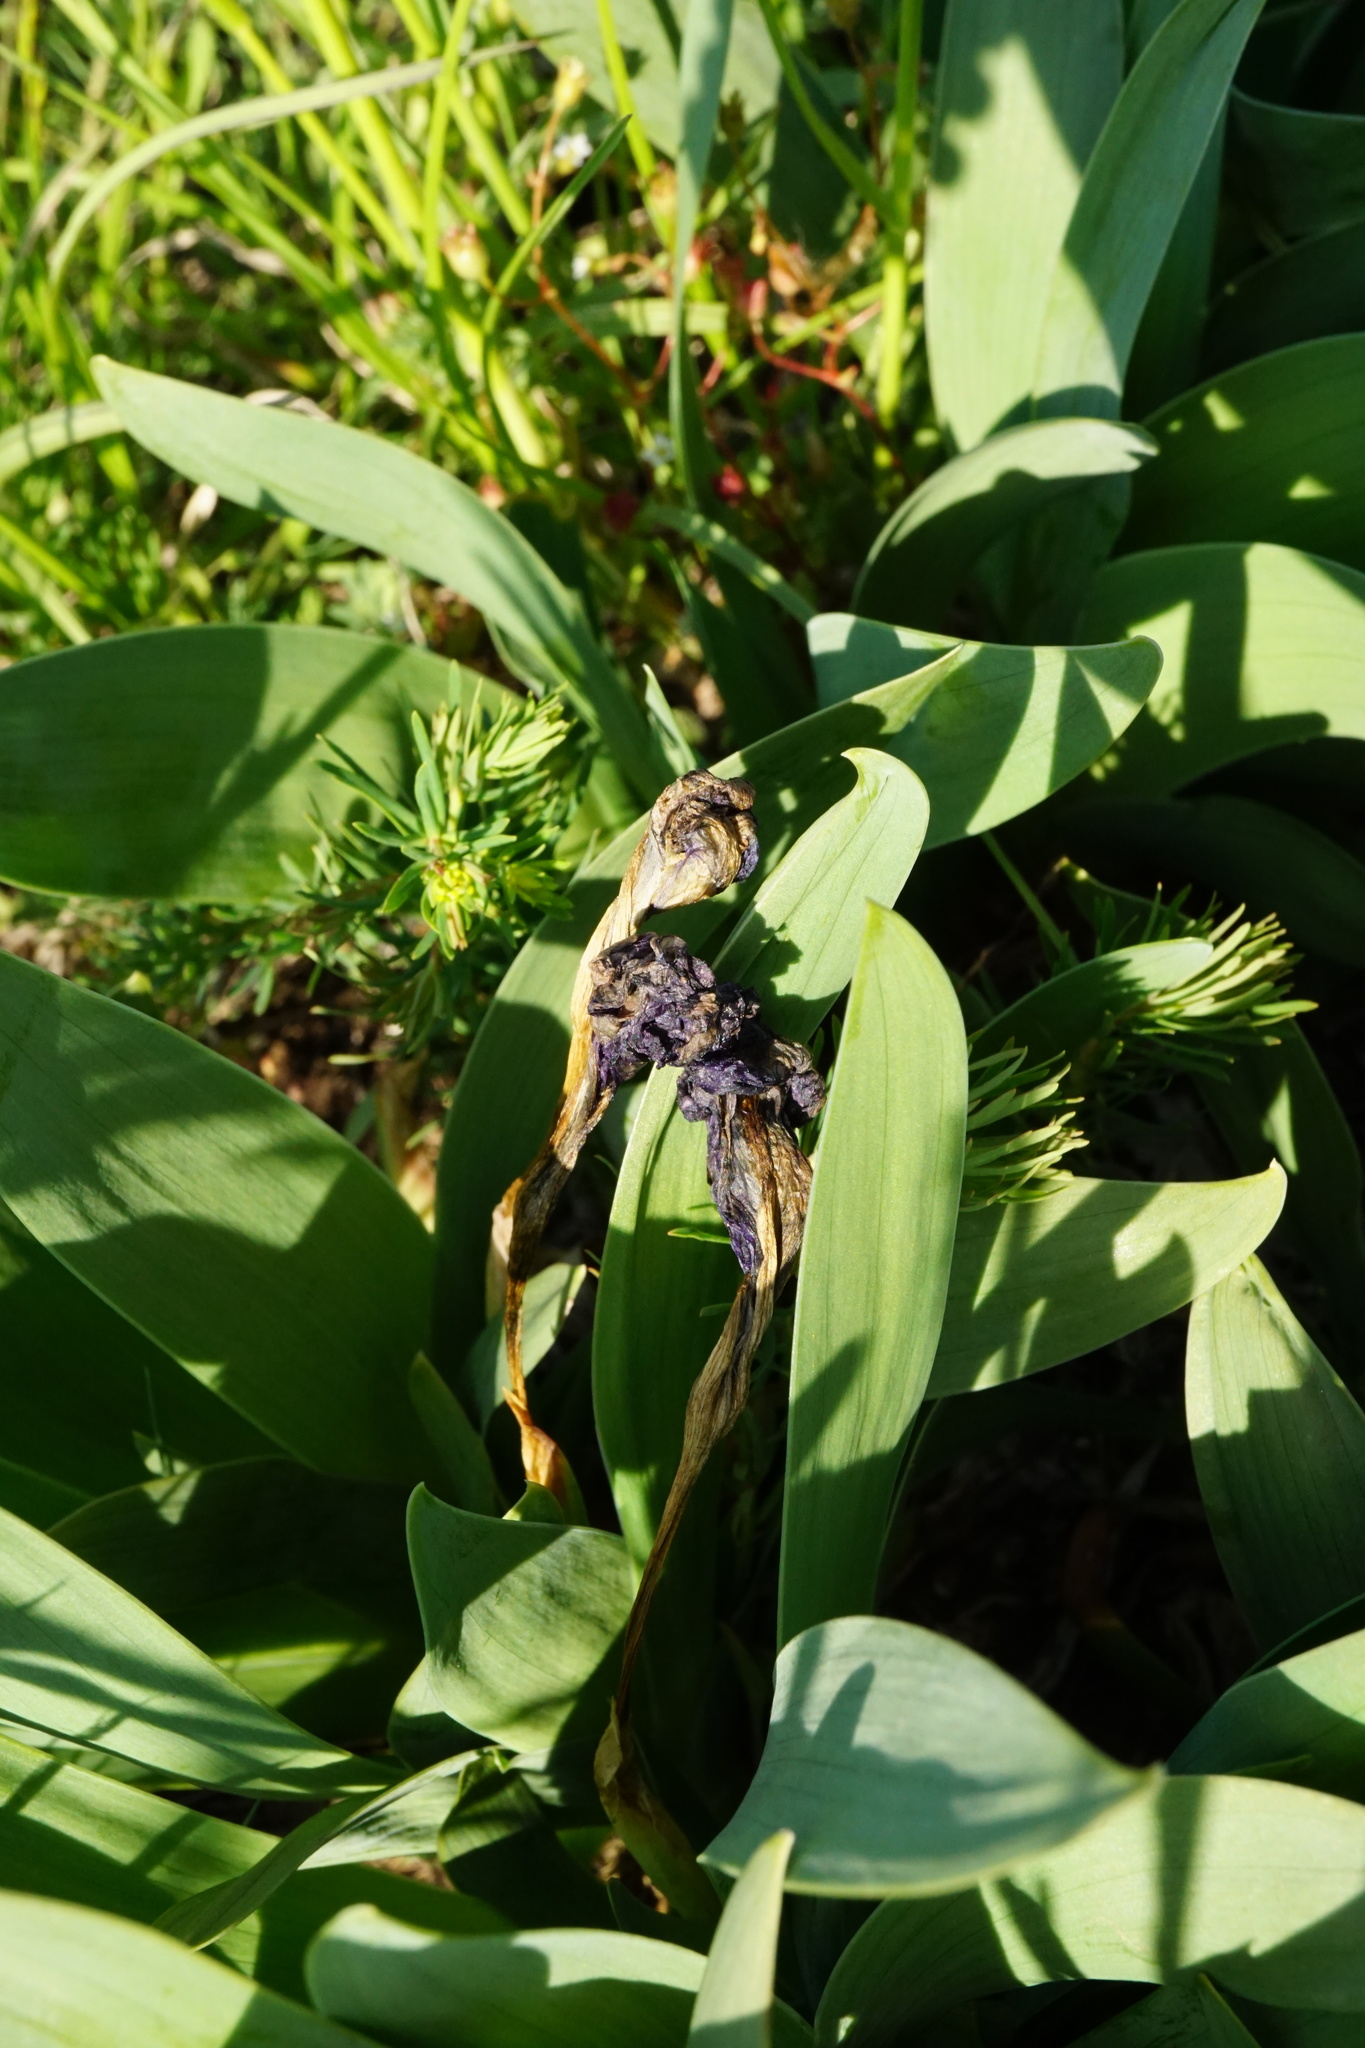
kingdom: Plantae
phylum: Tracheophyta
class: Liliopsida
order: Asparagales
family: Iridaceae
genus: Iris
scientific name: Iris pumila
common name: Dwarf iris
